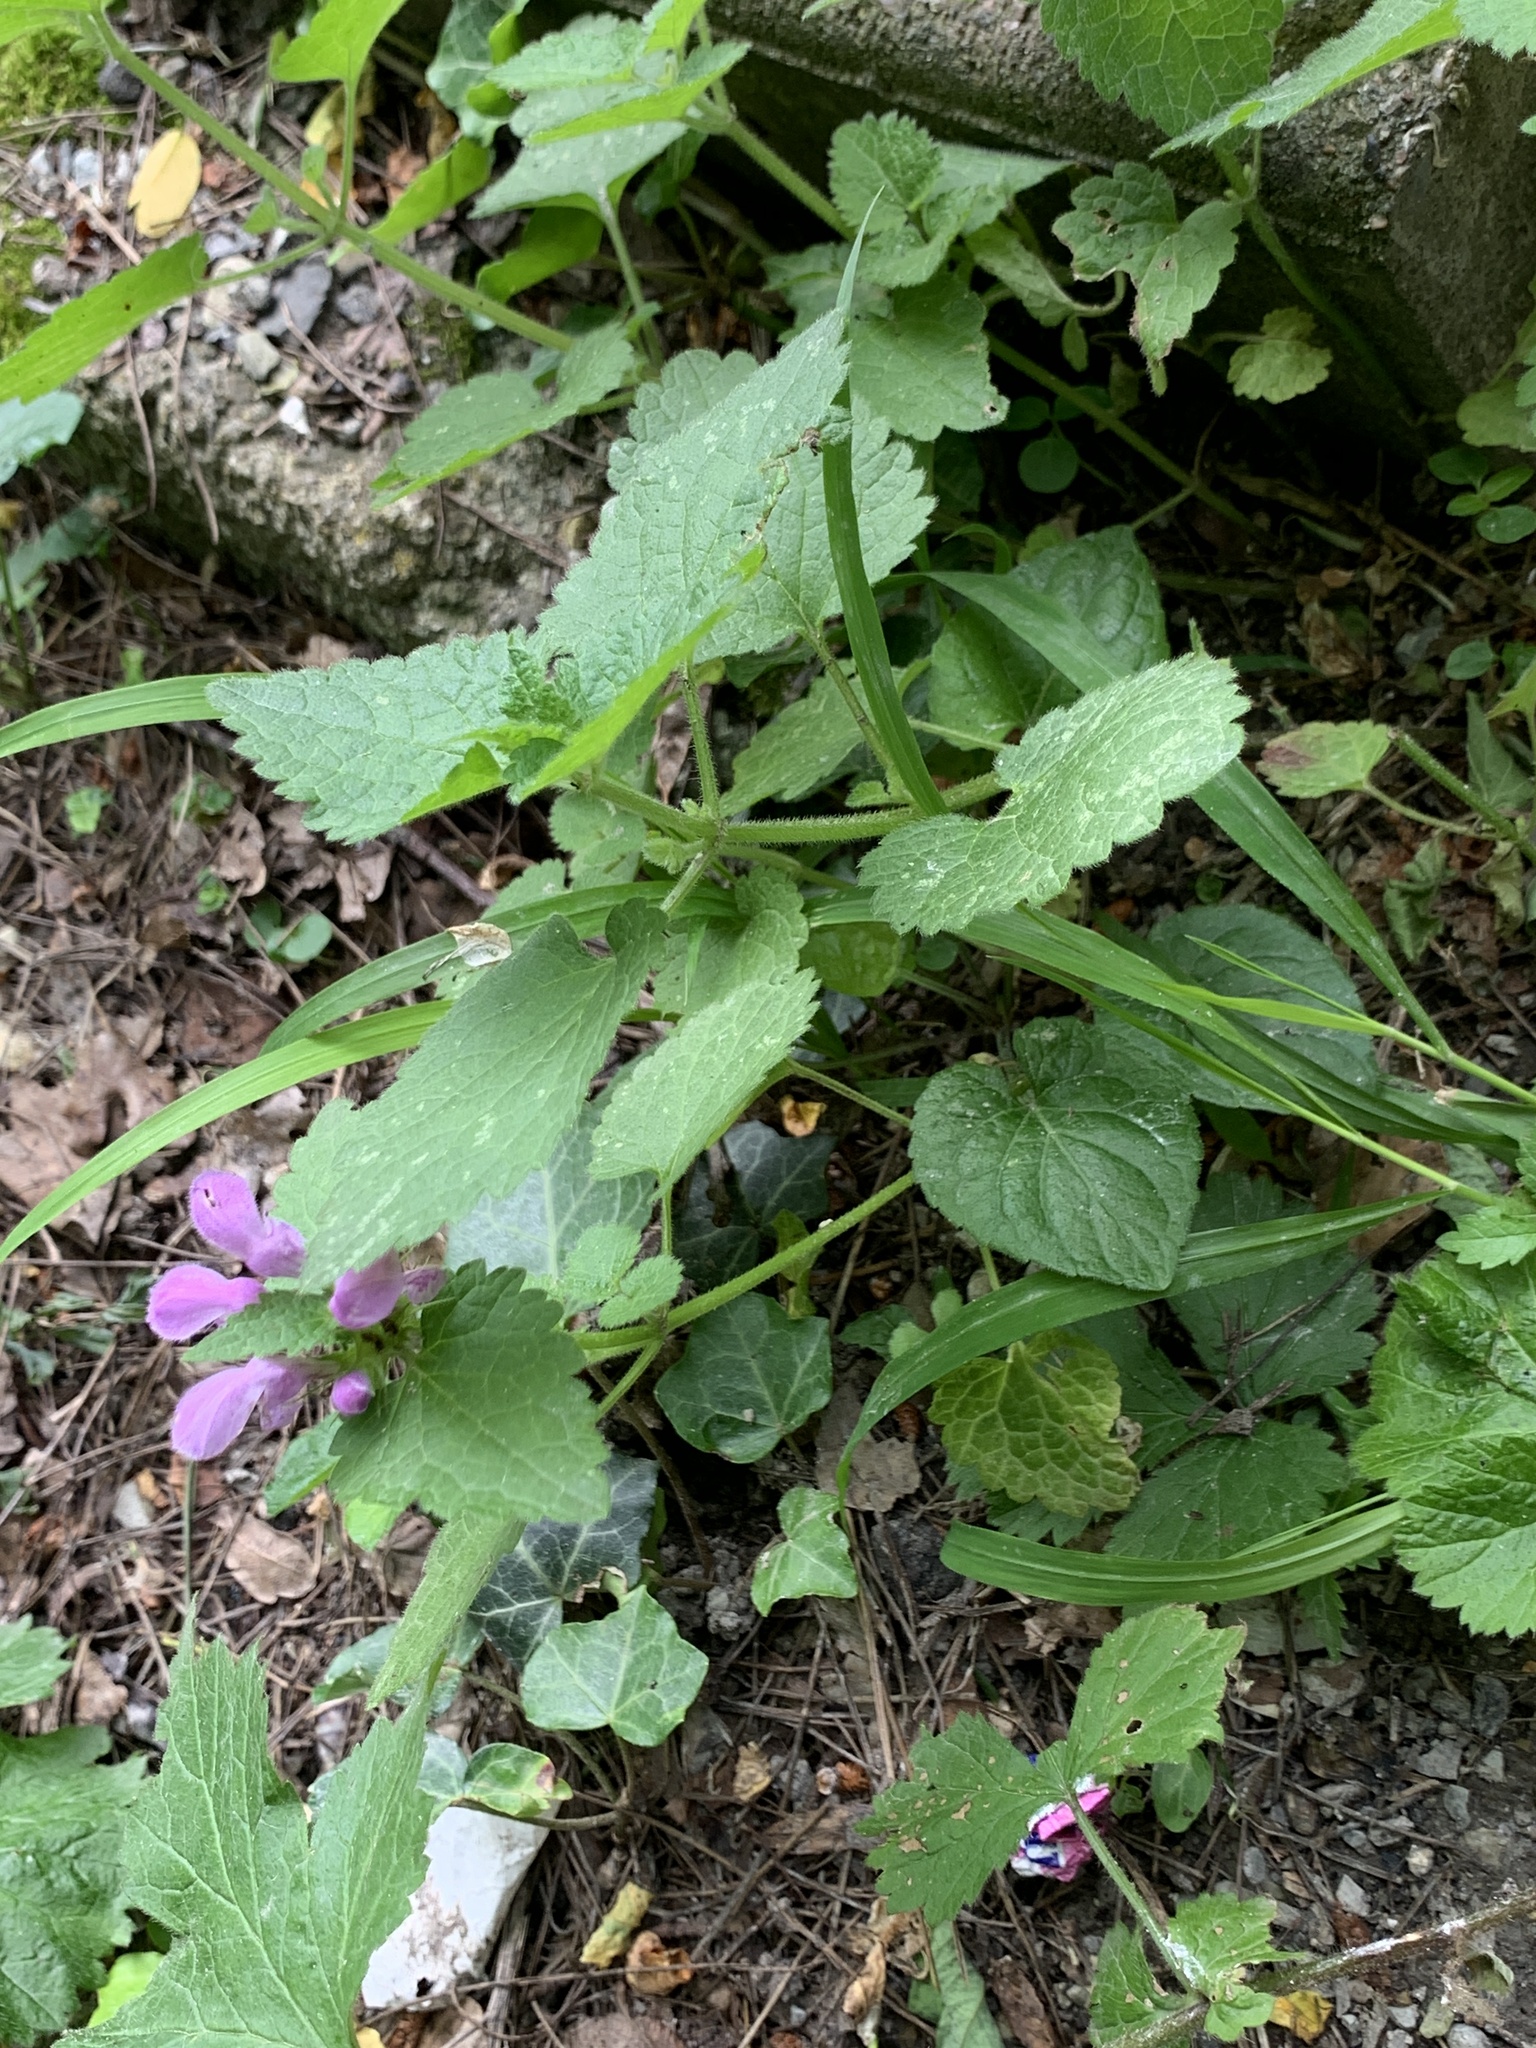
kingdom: Plantae
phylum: Tracheophyta
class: Magnoliopsida
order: Lamiales
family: Lamiaceae
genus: Lamium
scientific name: Lamium maculatum
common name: Spotted dead-nettle
